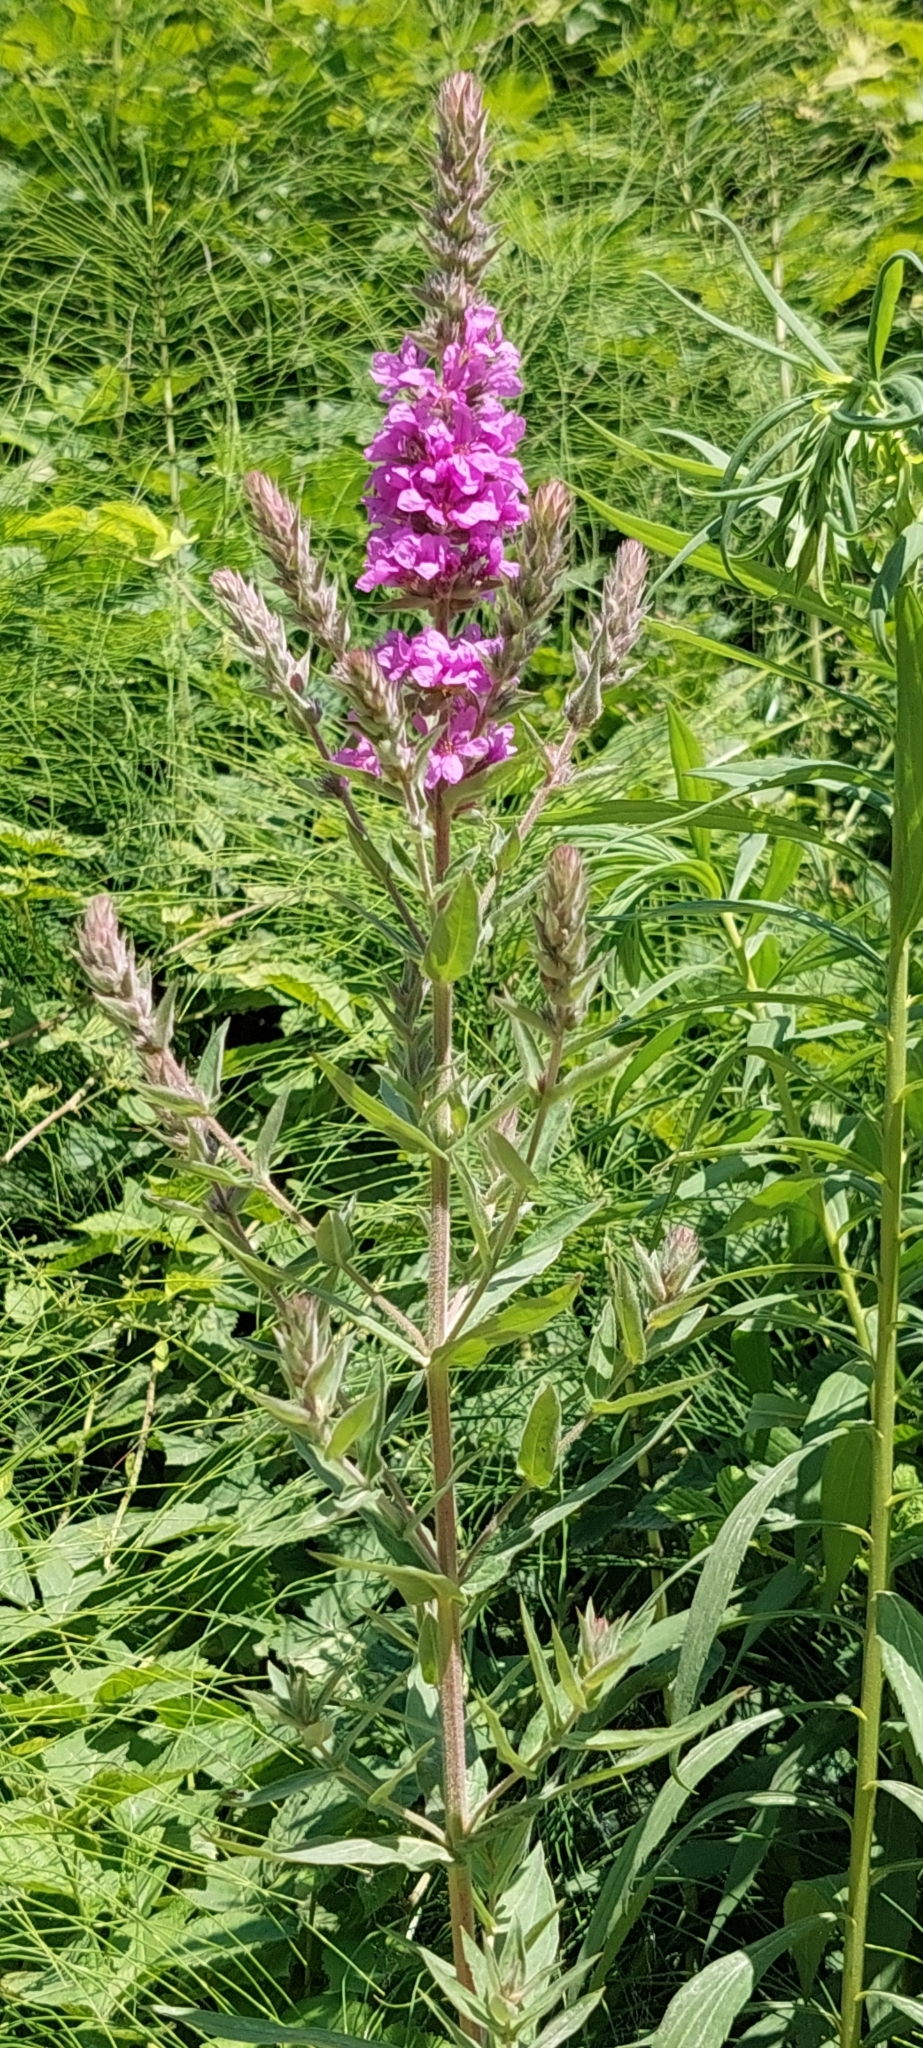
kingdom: Plantae
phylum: Tracheophyta
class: Magnoliopsida
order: Myrtales
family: Lythraceae
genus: Lythrum
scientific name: Lythrum salicaria
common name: Purple loosestrife
